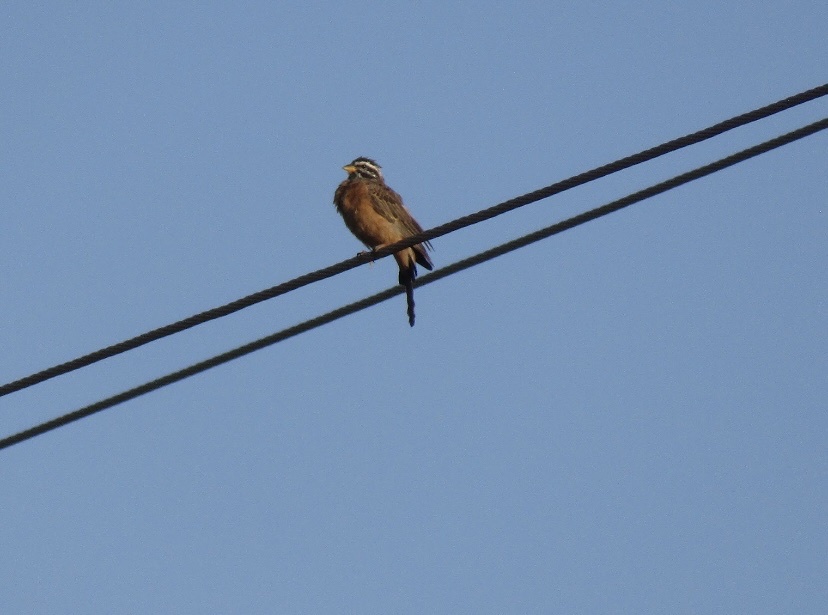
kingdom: Animalia
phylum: Chordata
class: Aves
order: Passeriformes
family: Emberizidae
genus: Emberiza
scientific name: Emberiza tahapisi
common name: Cinnamon-breasted bunting
